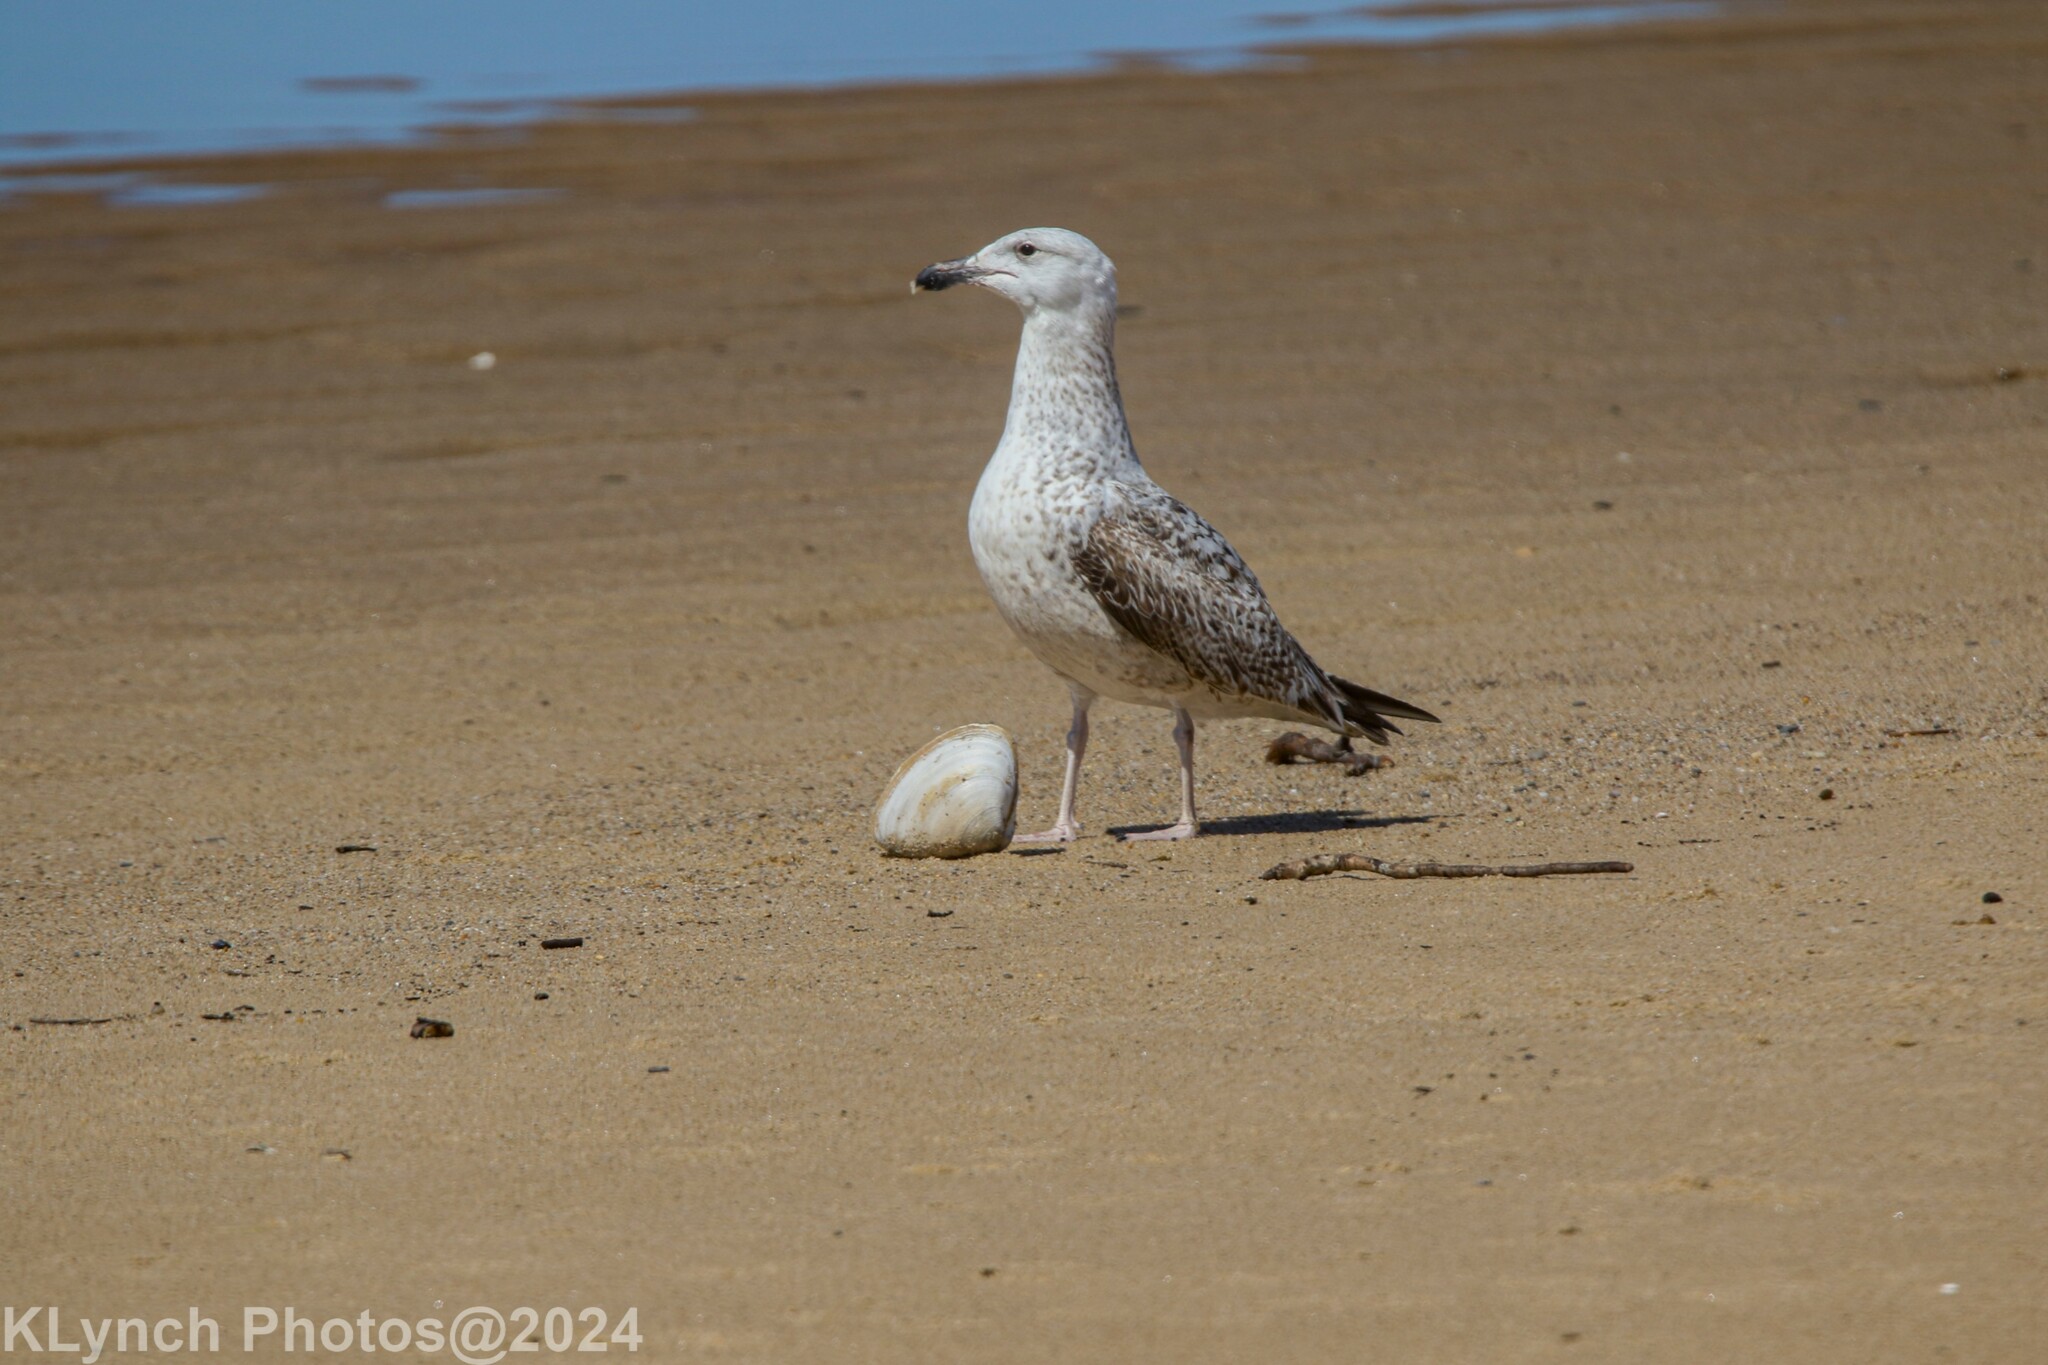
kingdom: Animalia
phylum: Chordata
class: Aves
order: Charadriiformes
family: Laridae
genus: Larus
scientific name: Larus marinus
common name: Great black-backed gull
